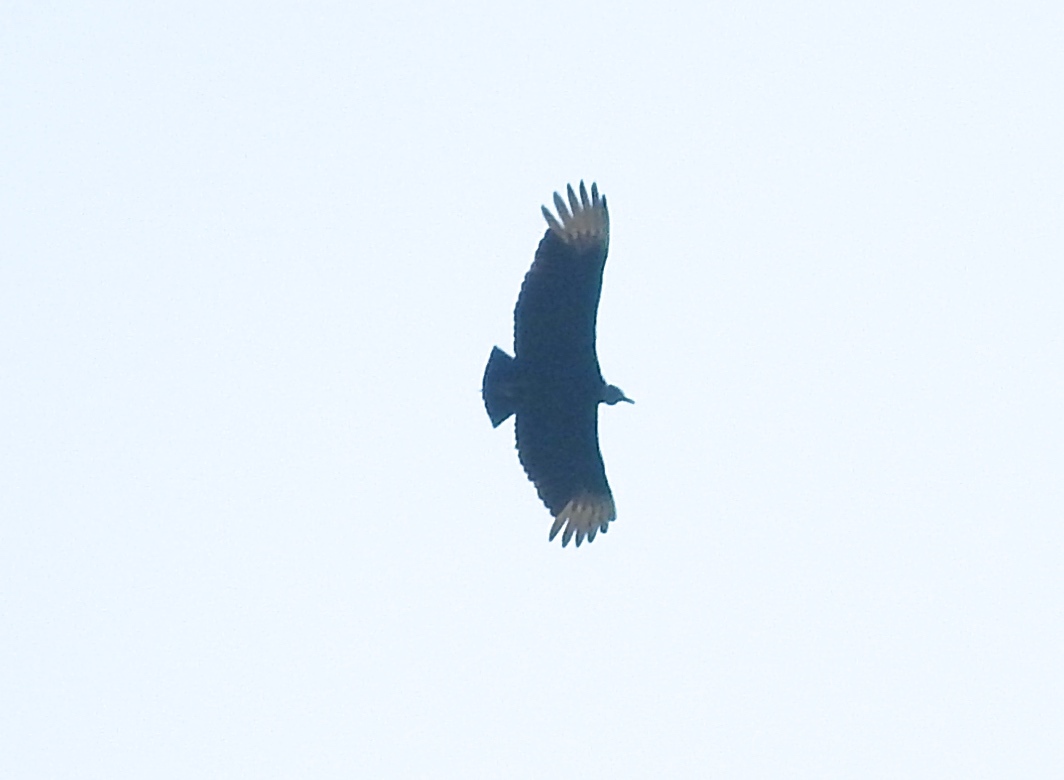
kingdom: Animalia
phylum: Chordata
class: Aves
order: Accipitriformes
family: Cathartidae
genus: Coragyps
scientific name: Coragyps atratus
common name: Black vulture
